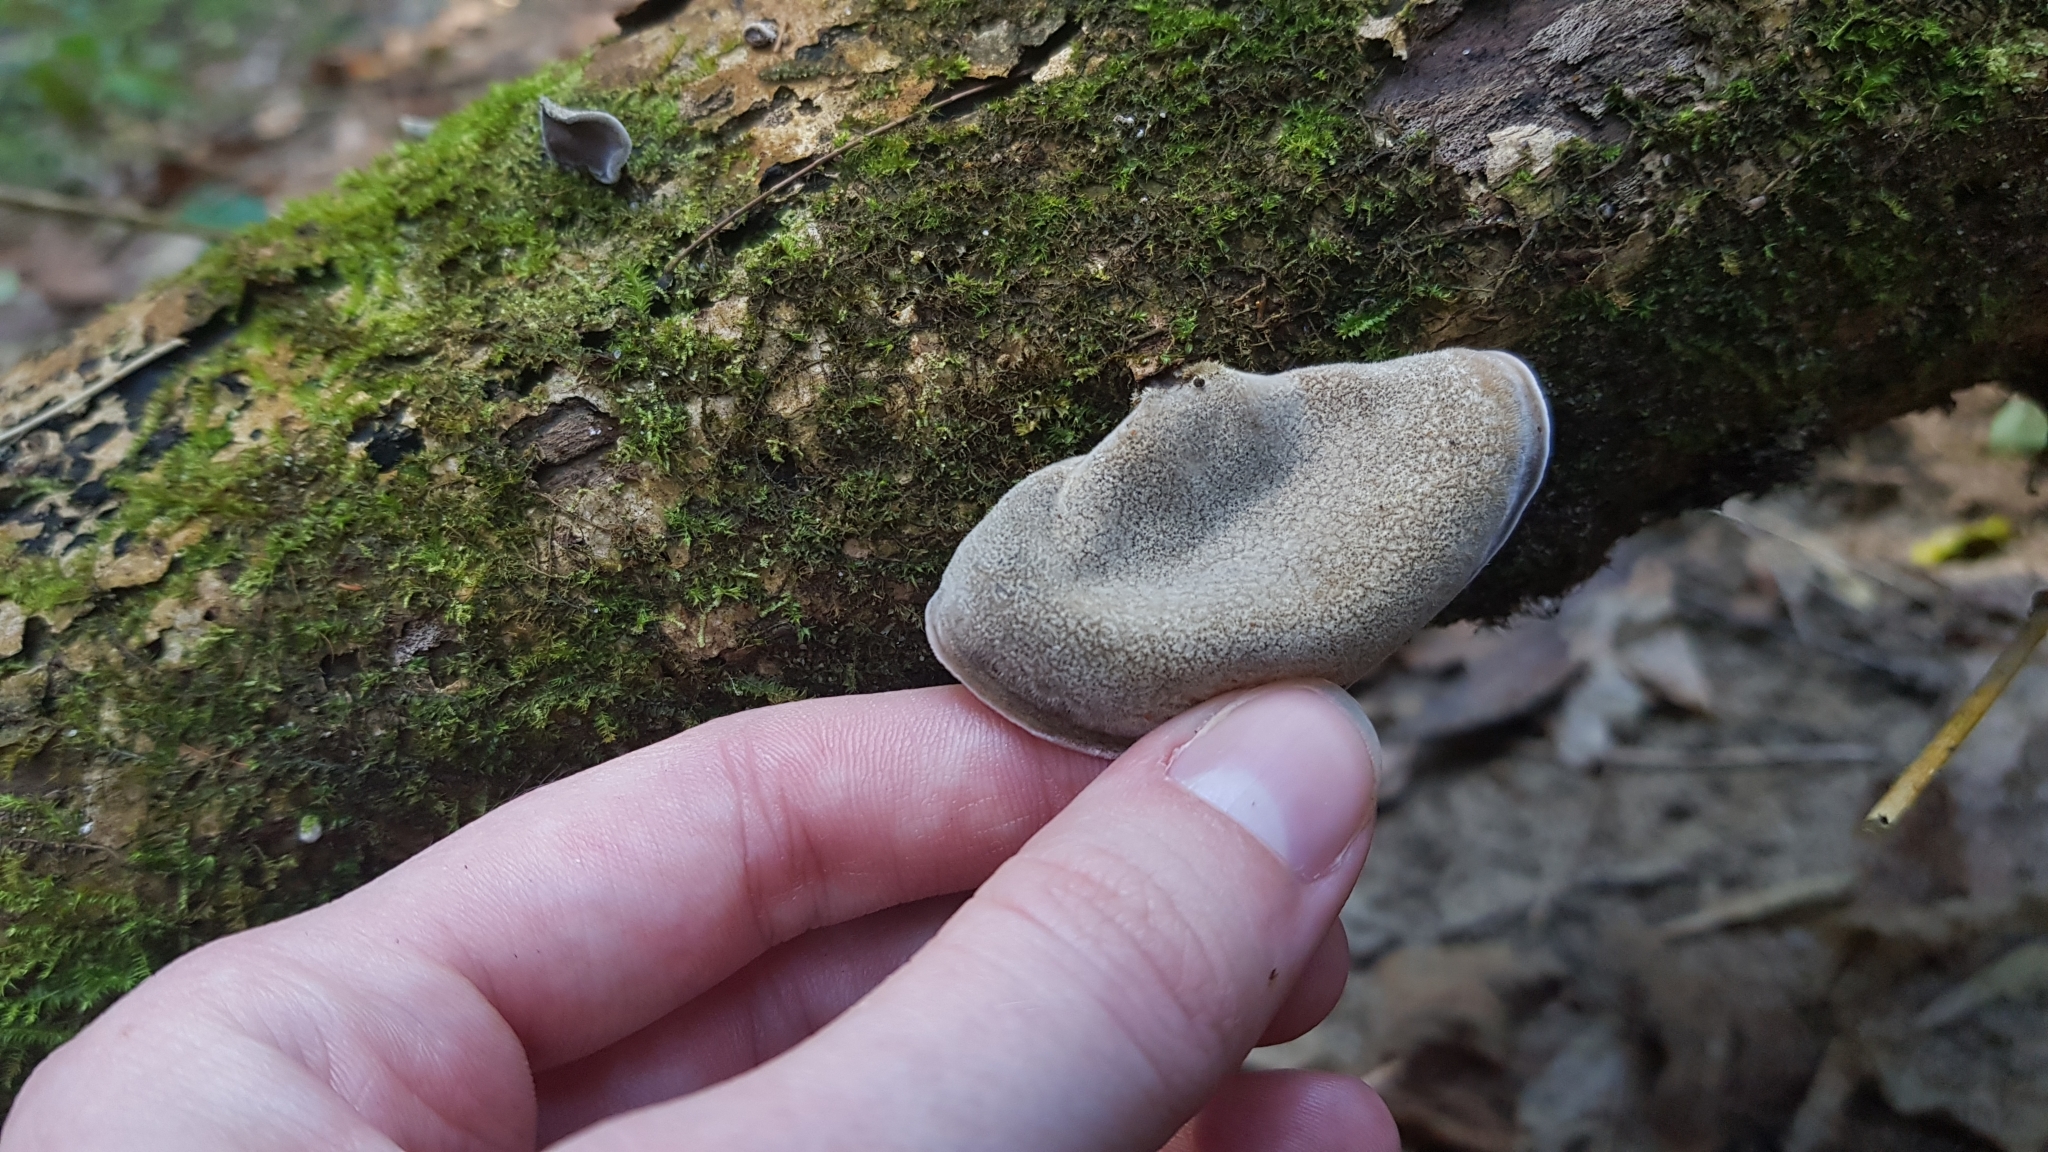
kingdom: Fungi
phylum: Basidiomycota
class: Agaricomycetes
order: Auriculariales
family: Auriculariaceae
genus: Auricularia
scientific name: Auricularia cornea
